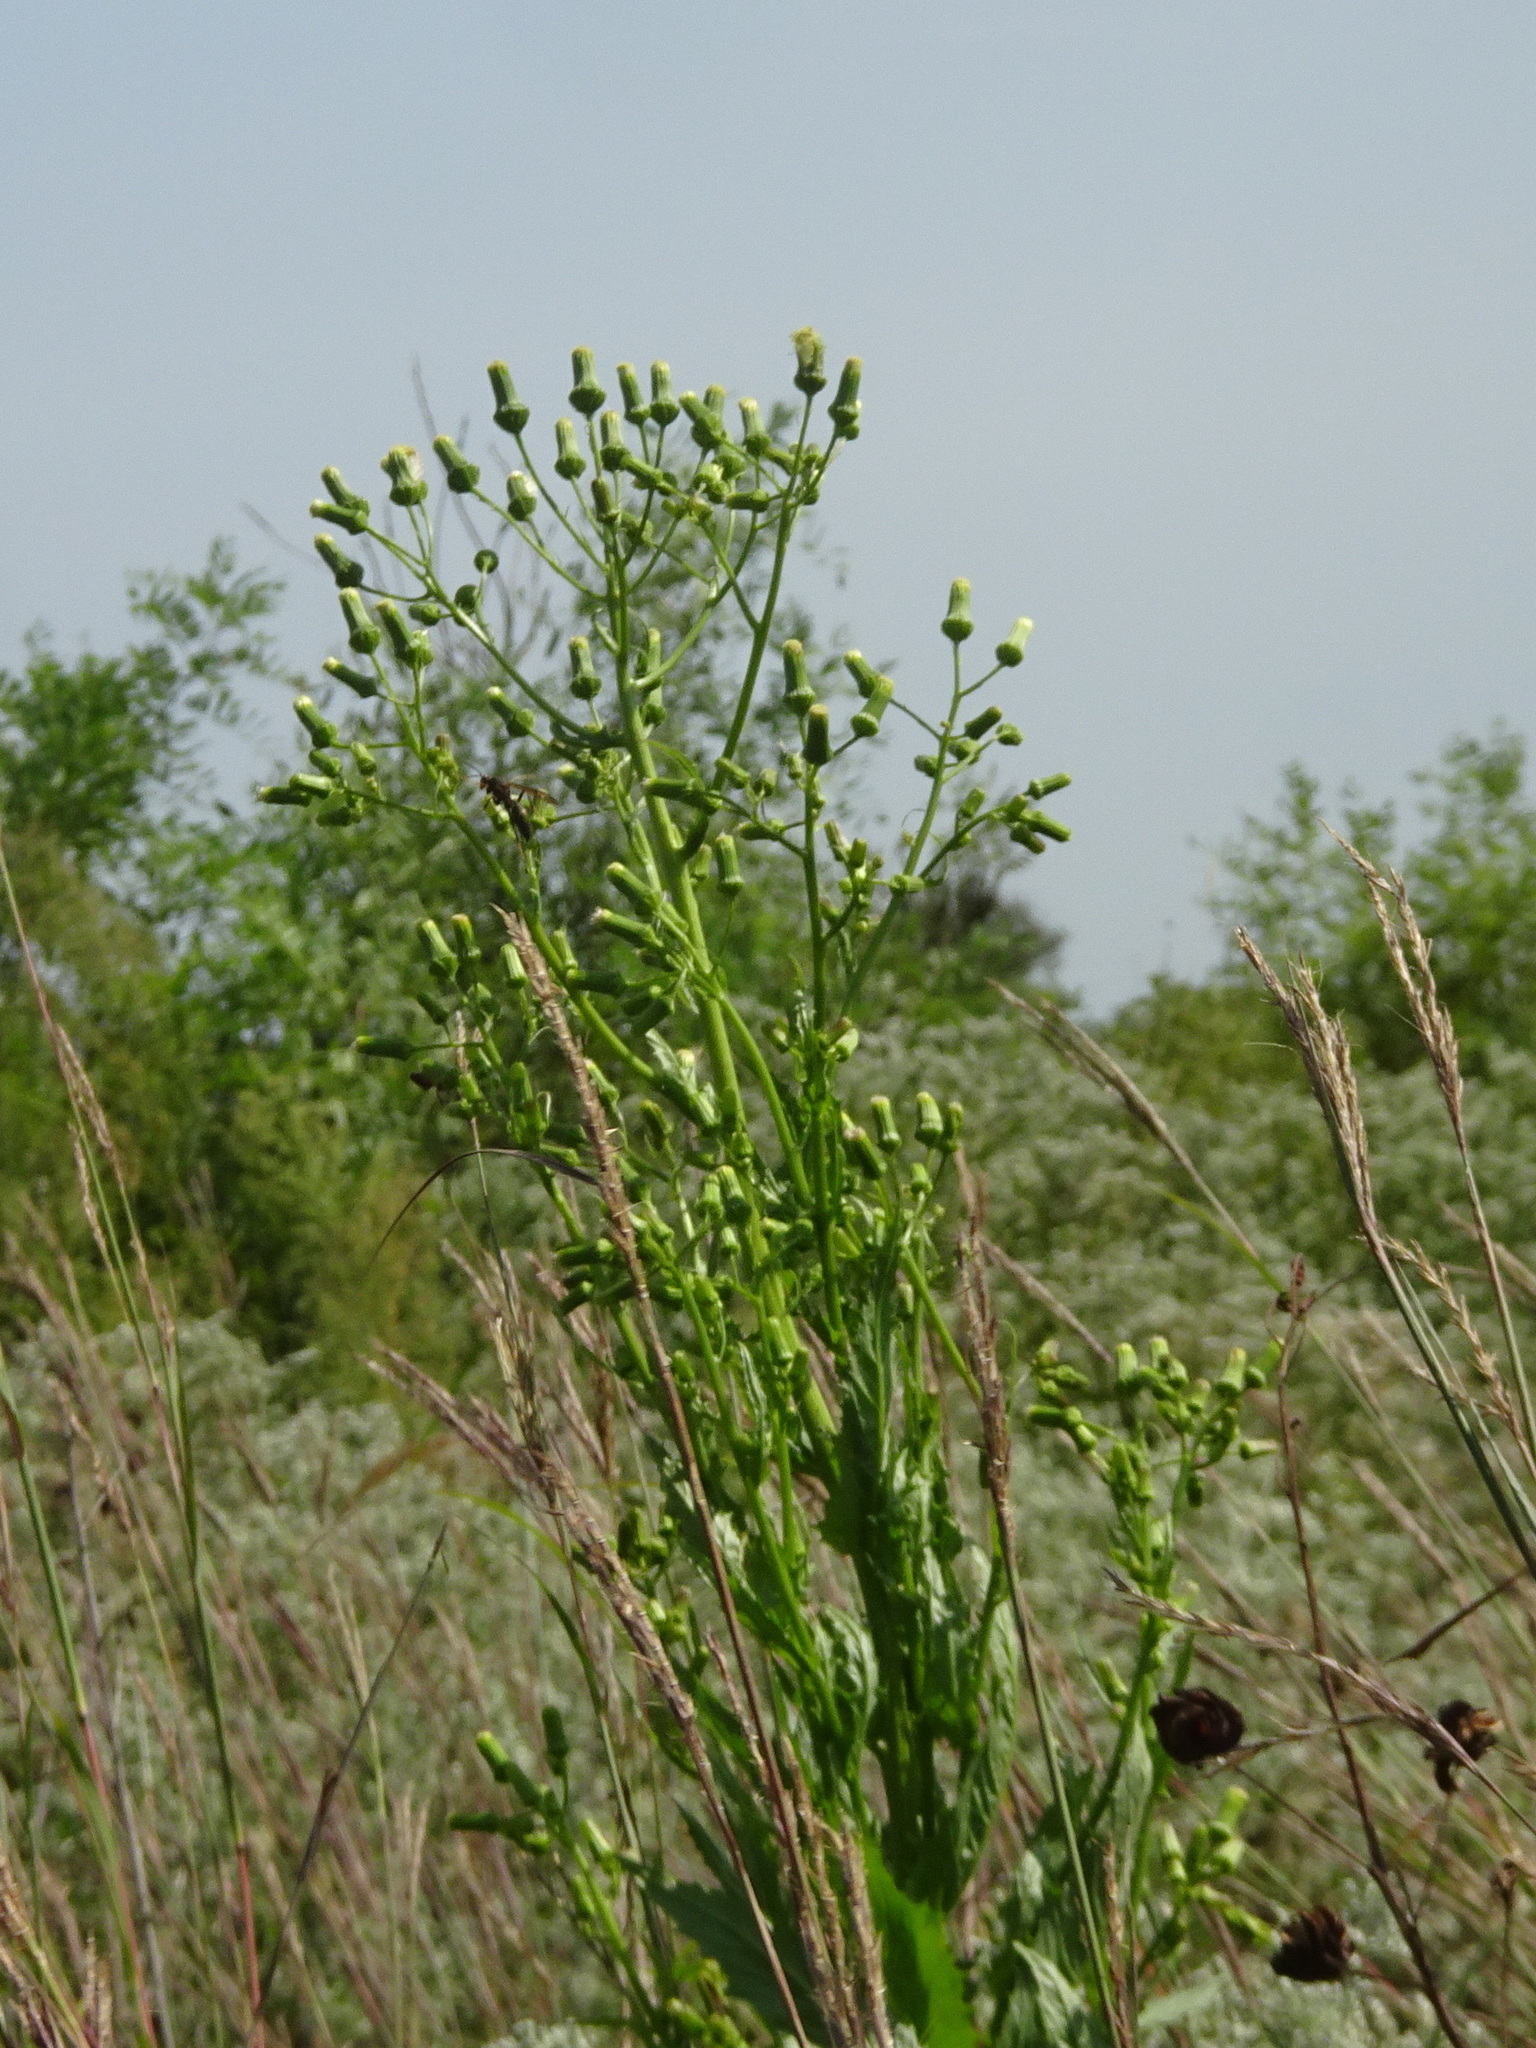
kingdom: Plantae
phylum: Tracheophyta
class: Magnoliopsida
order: Asterales
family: Asteraceae
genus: Erechtites
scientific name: Erechtites hieraciifolius
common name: American burnweed
